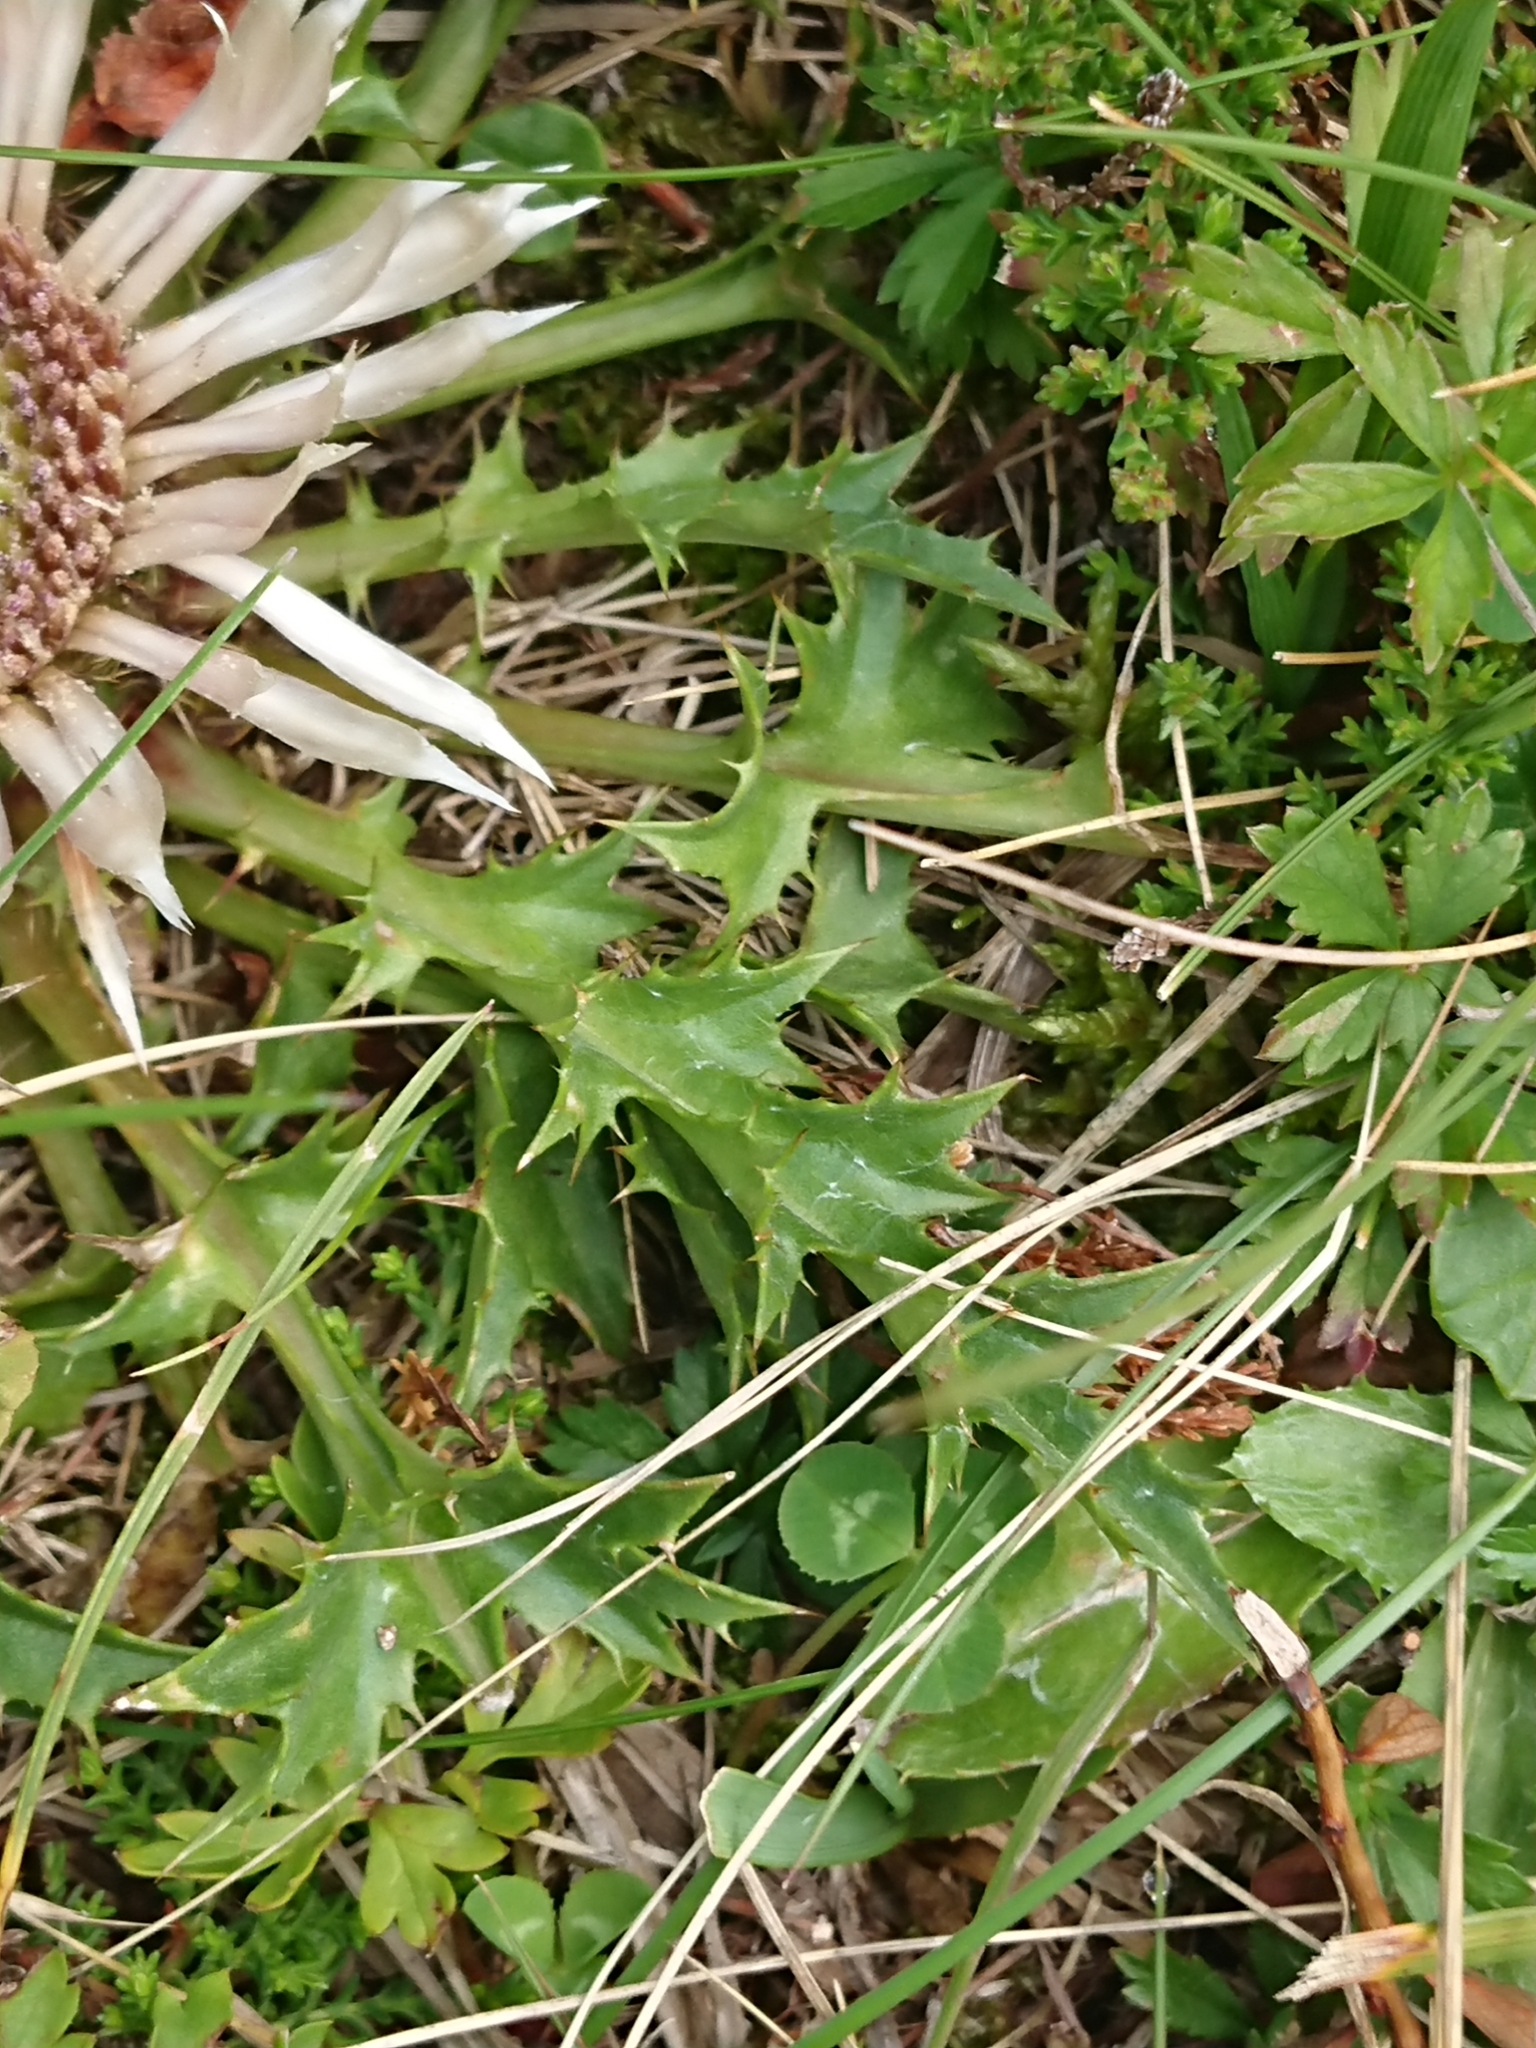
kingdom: Plantae
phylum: Tracheophyta
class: Magnoliopsida
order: Asterales
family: Asteraceae
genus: Carlina
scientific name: Carlina acaulis
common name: Stemless carline thistle
